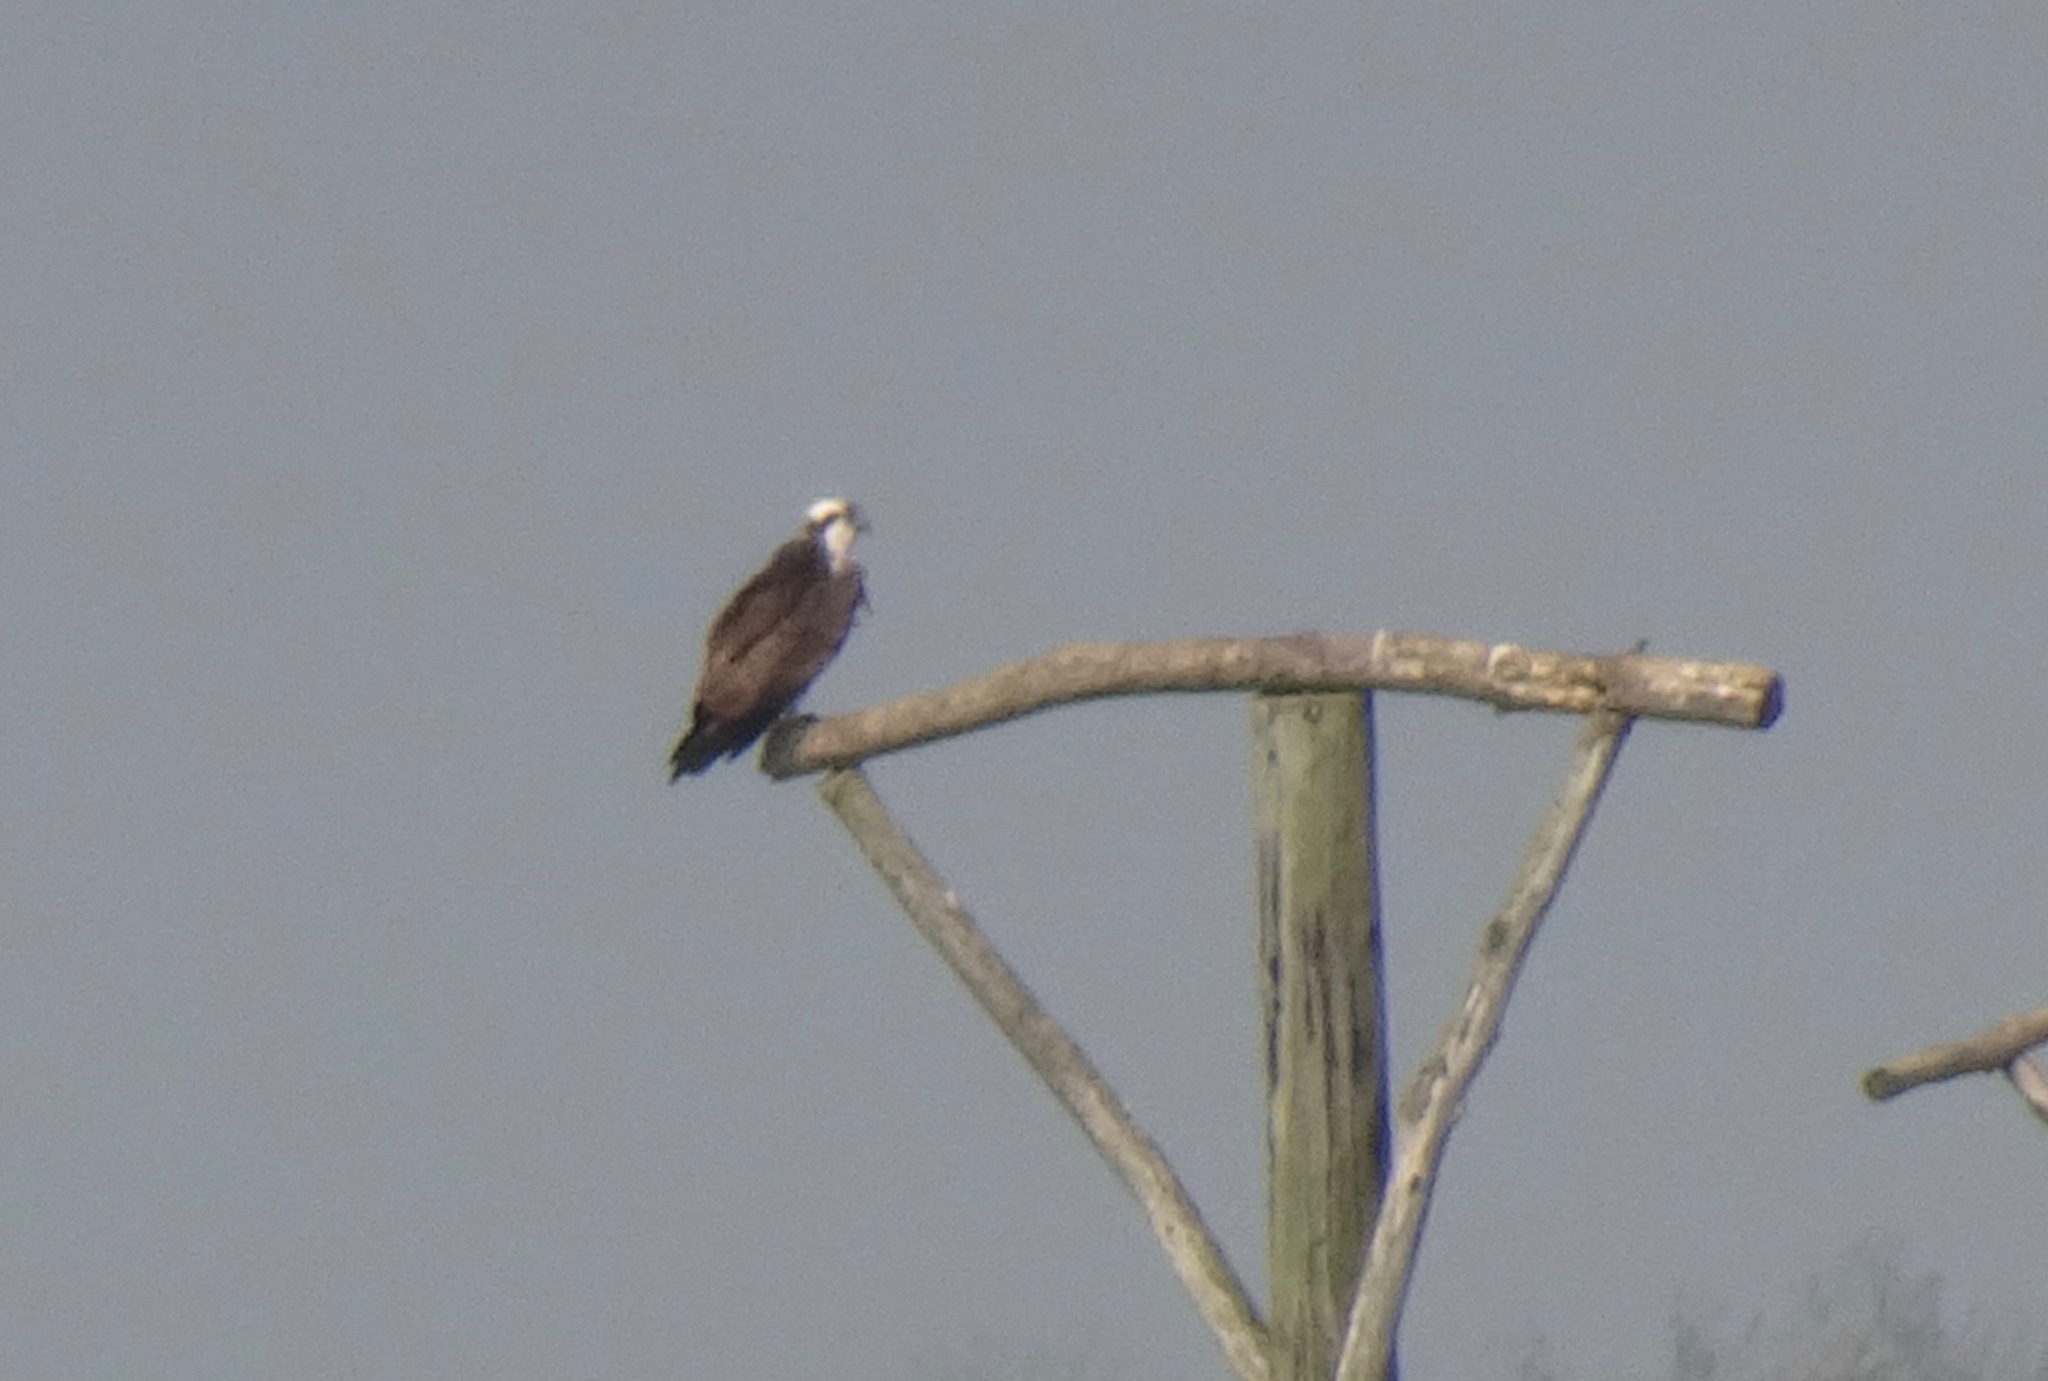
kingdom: Animalia
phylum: Chordata
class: Aves
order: Accipitriformes
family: Pandionidae
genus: Pandion
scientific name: Pandion haliaetus
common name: Osprey
